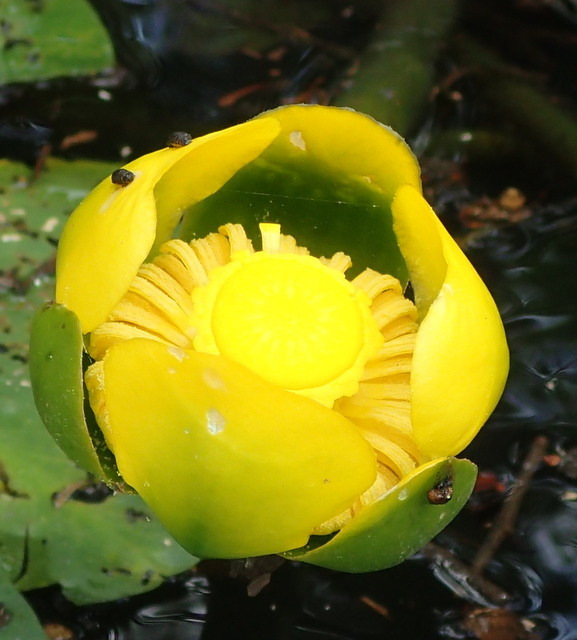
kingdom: Plantae
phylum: Tracheophyta
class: Magnoliopsida
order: Nymphaeales
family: Nymphaeaceae
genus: Nuphar
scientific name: Nuphar advena
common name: Spatter-dock
